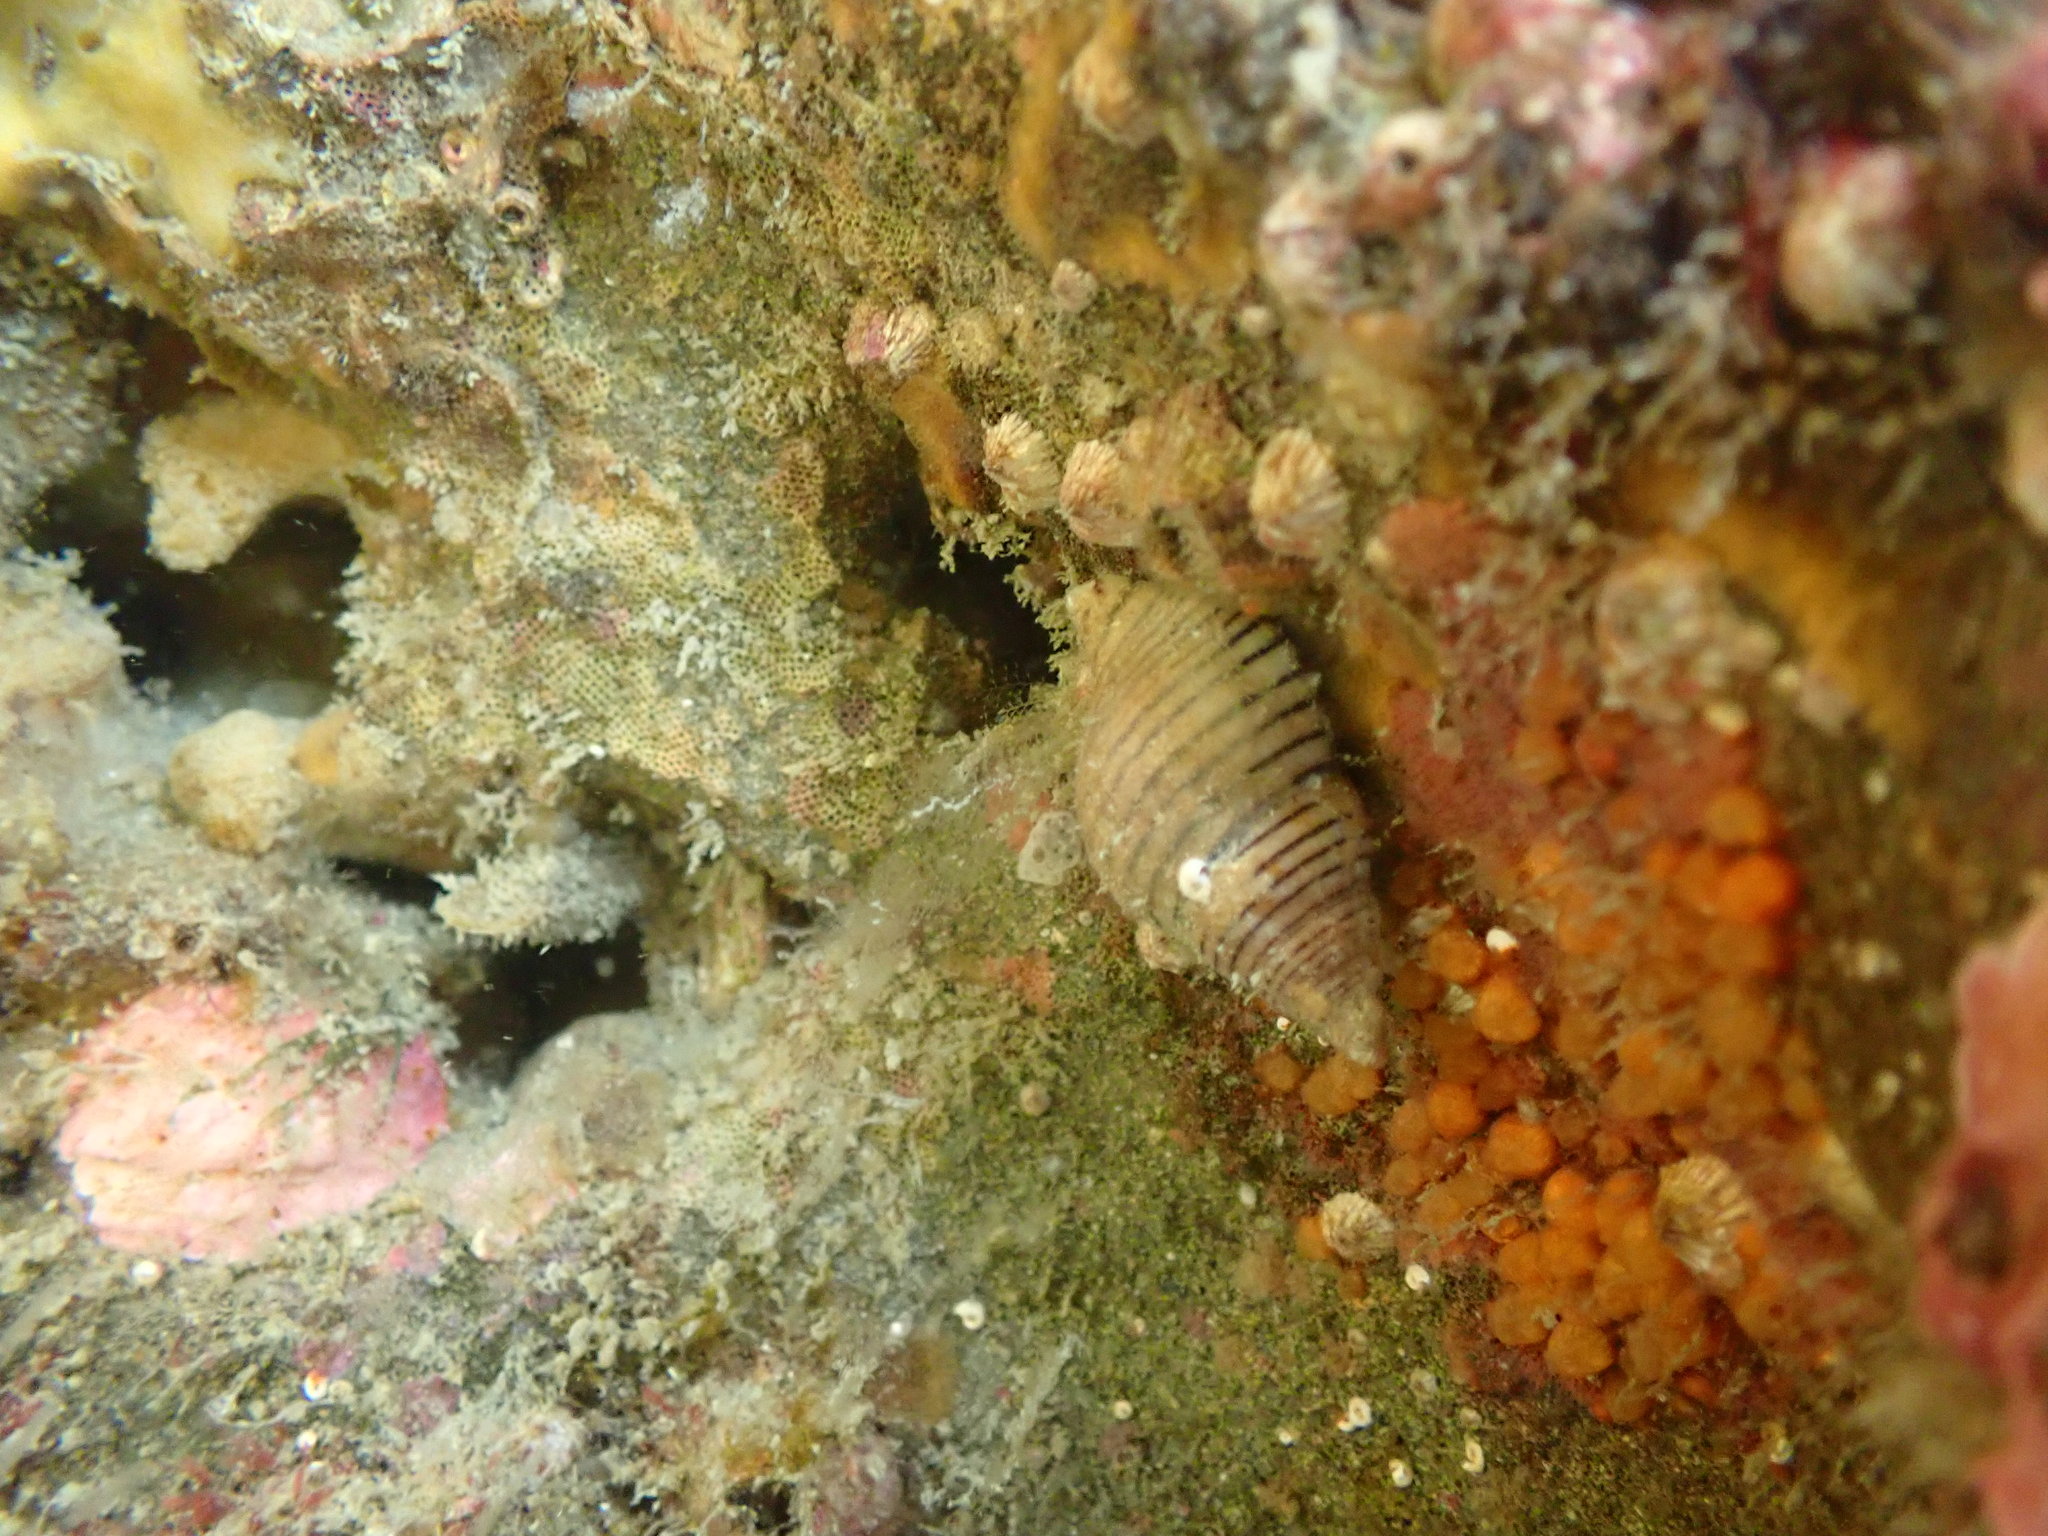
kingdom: Animalia
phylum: Mollusca
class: Gastropoda
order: Neogastropoda
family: Tudiclidae
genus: Buccinulum
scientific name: Buccinulum linea
